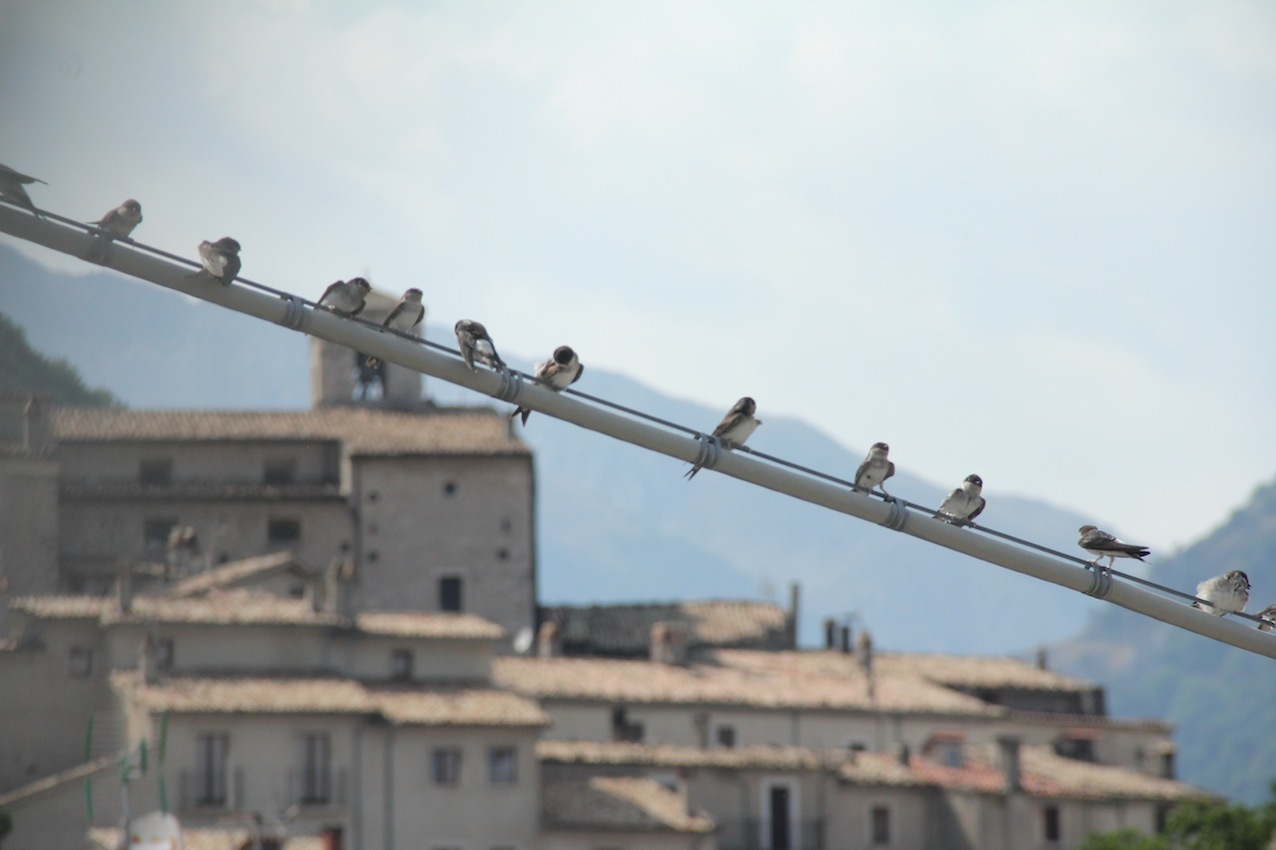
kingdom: Animalia
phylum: Chordata
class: Aves
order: Passeriformes
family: Hirundinidae
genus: Delichon
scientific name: Delichon urbicum
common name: Common house martin
